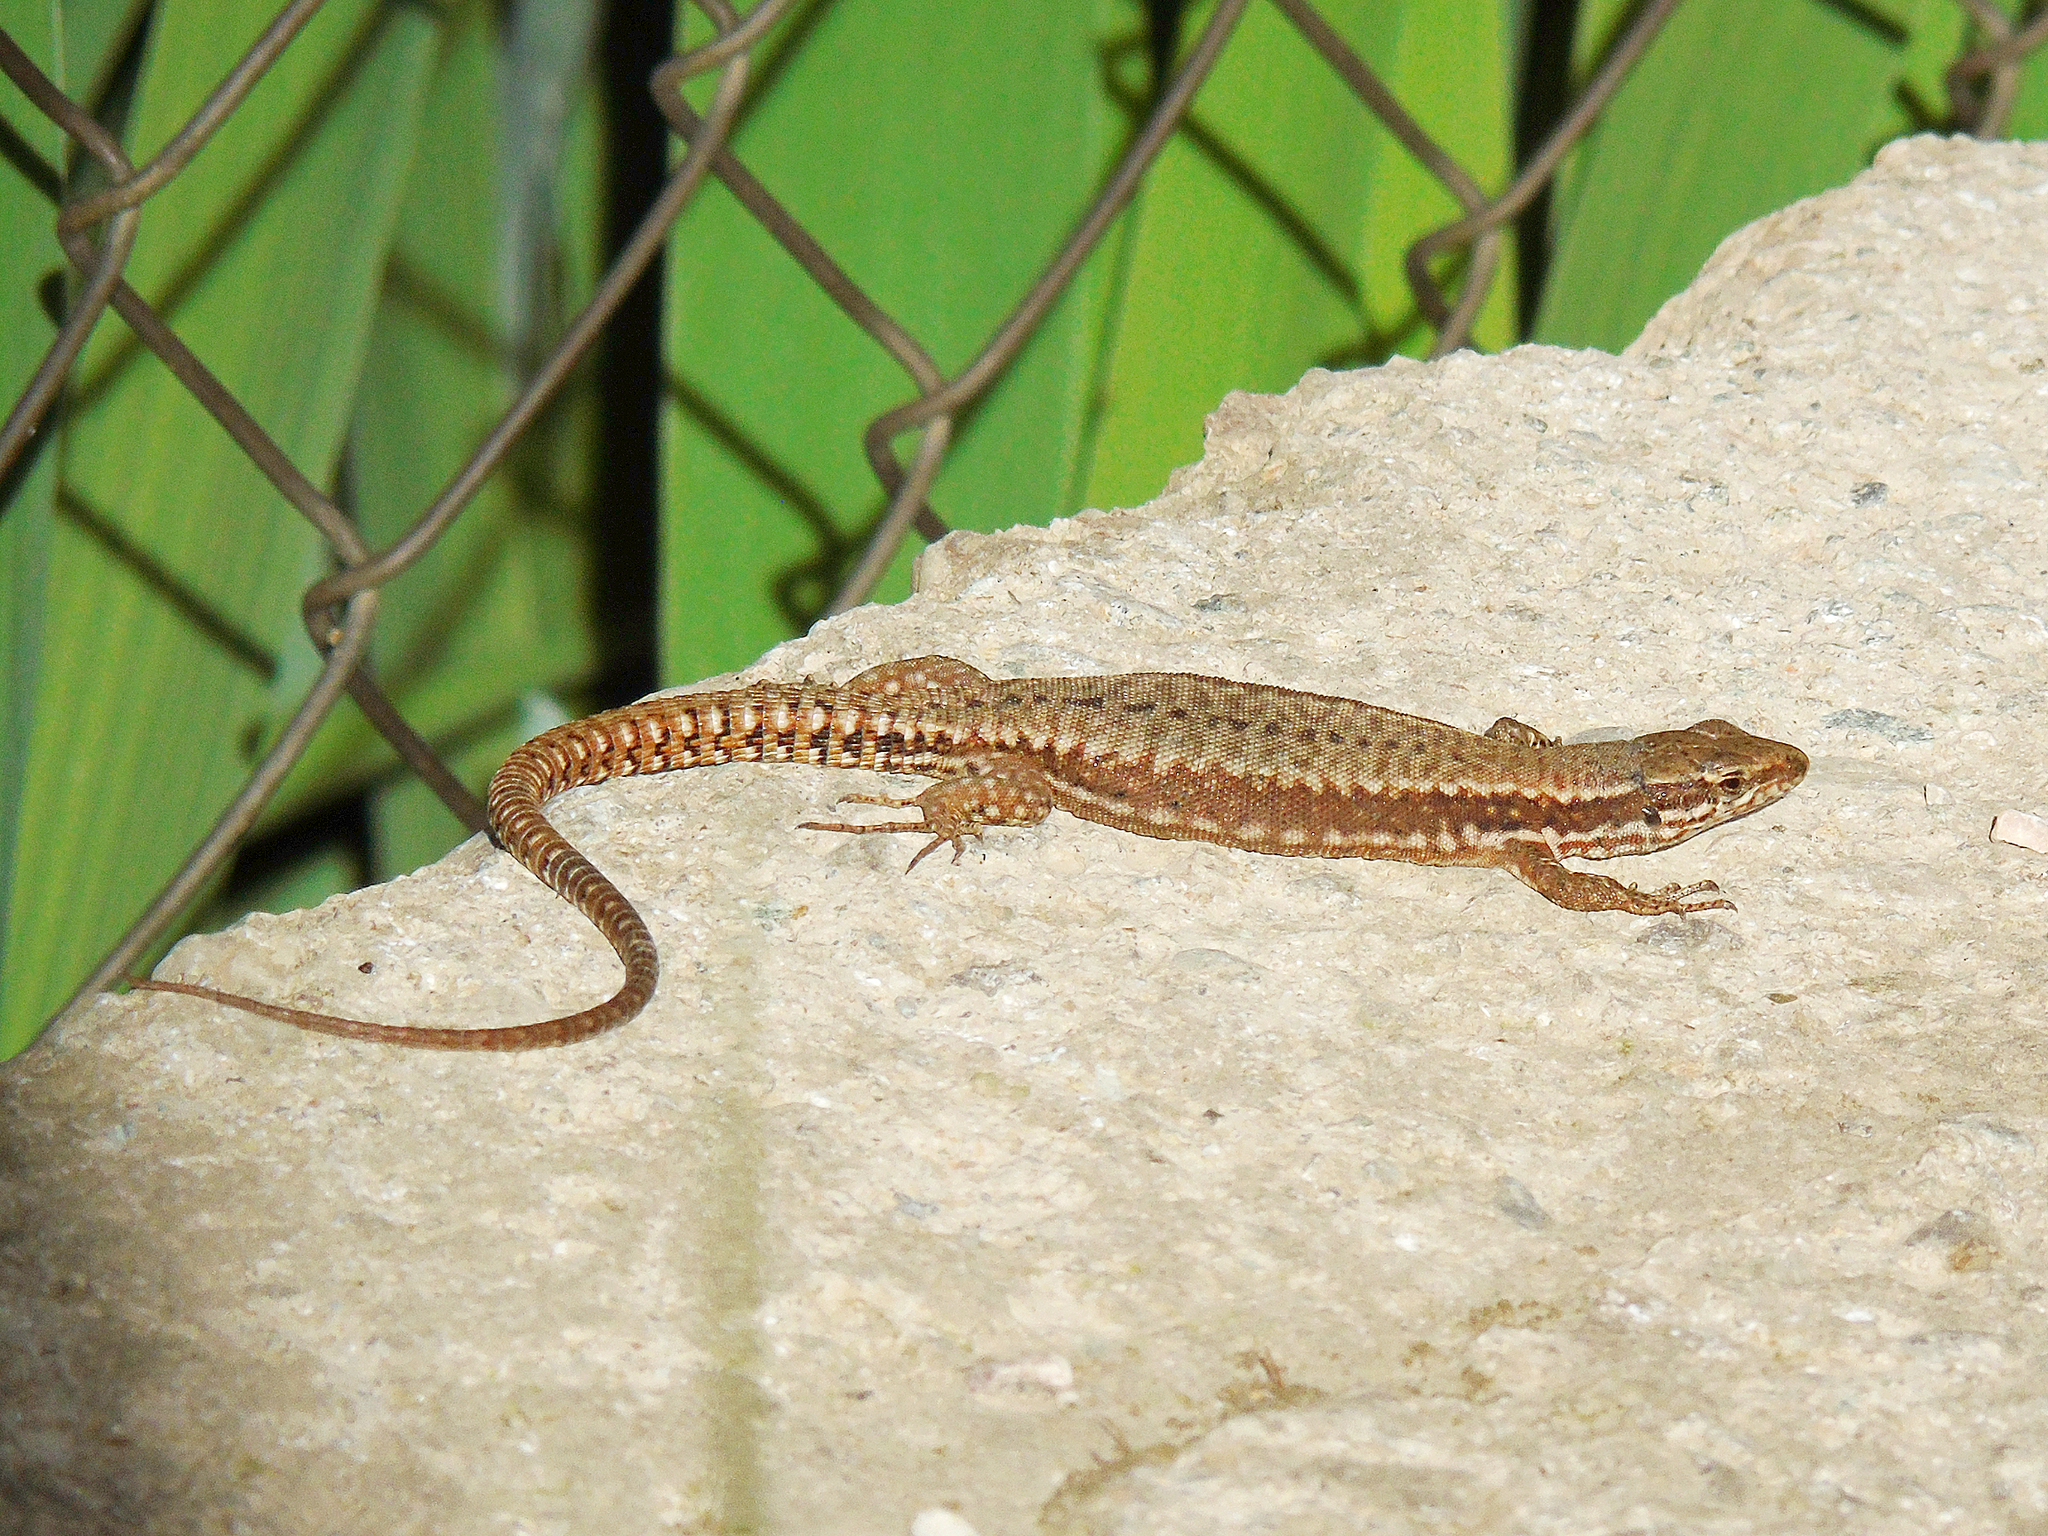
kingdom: Animalia
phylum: Chordata
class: Squamata
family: Lacertidae
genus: Podarcis
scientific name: Podarcis muralis
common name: Common wall lizard
